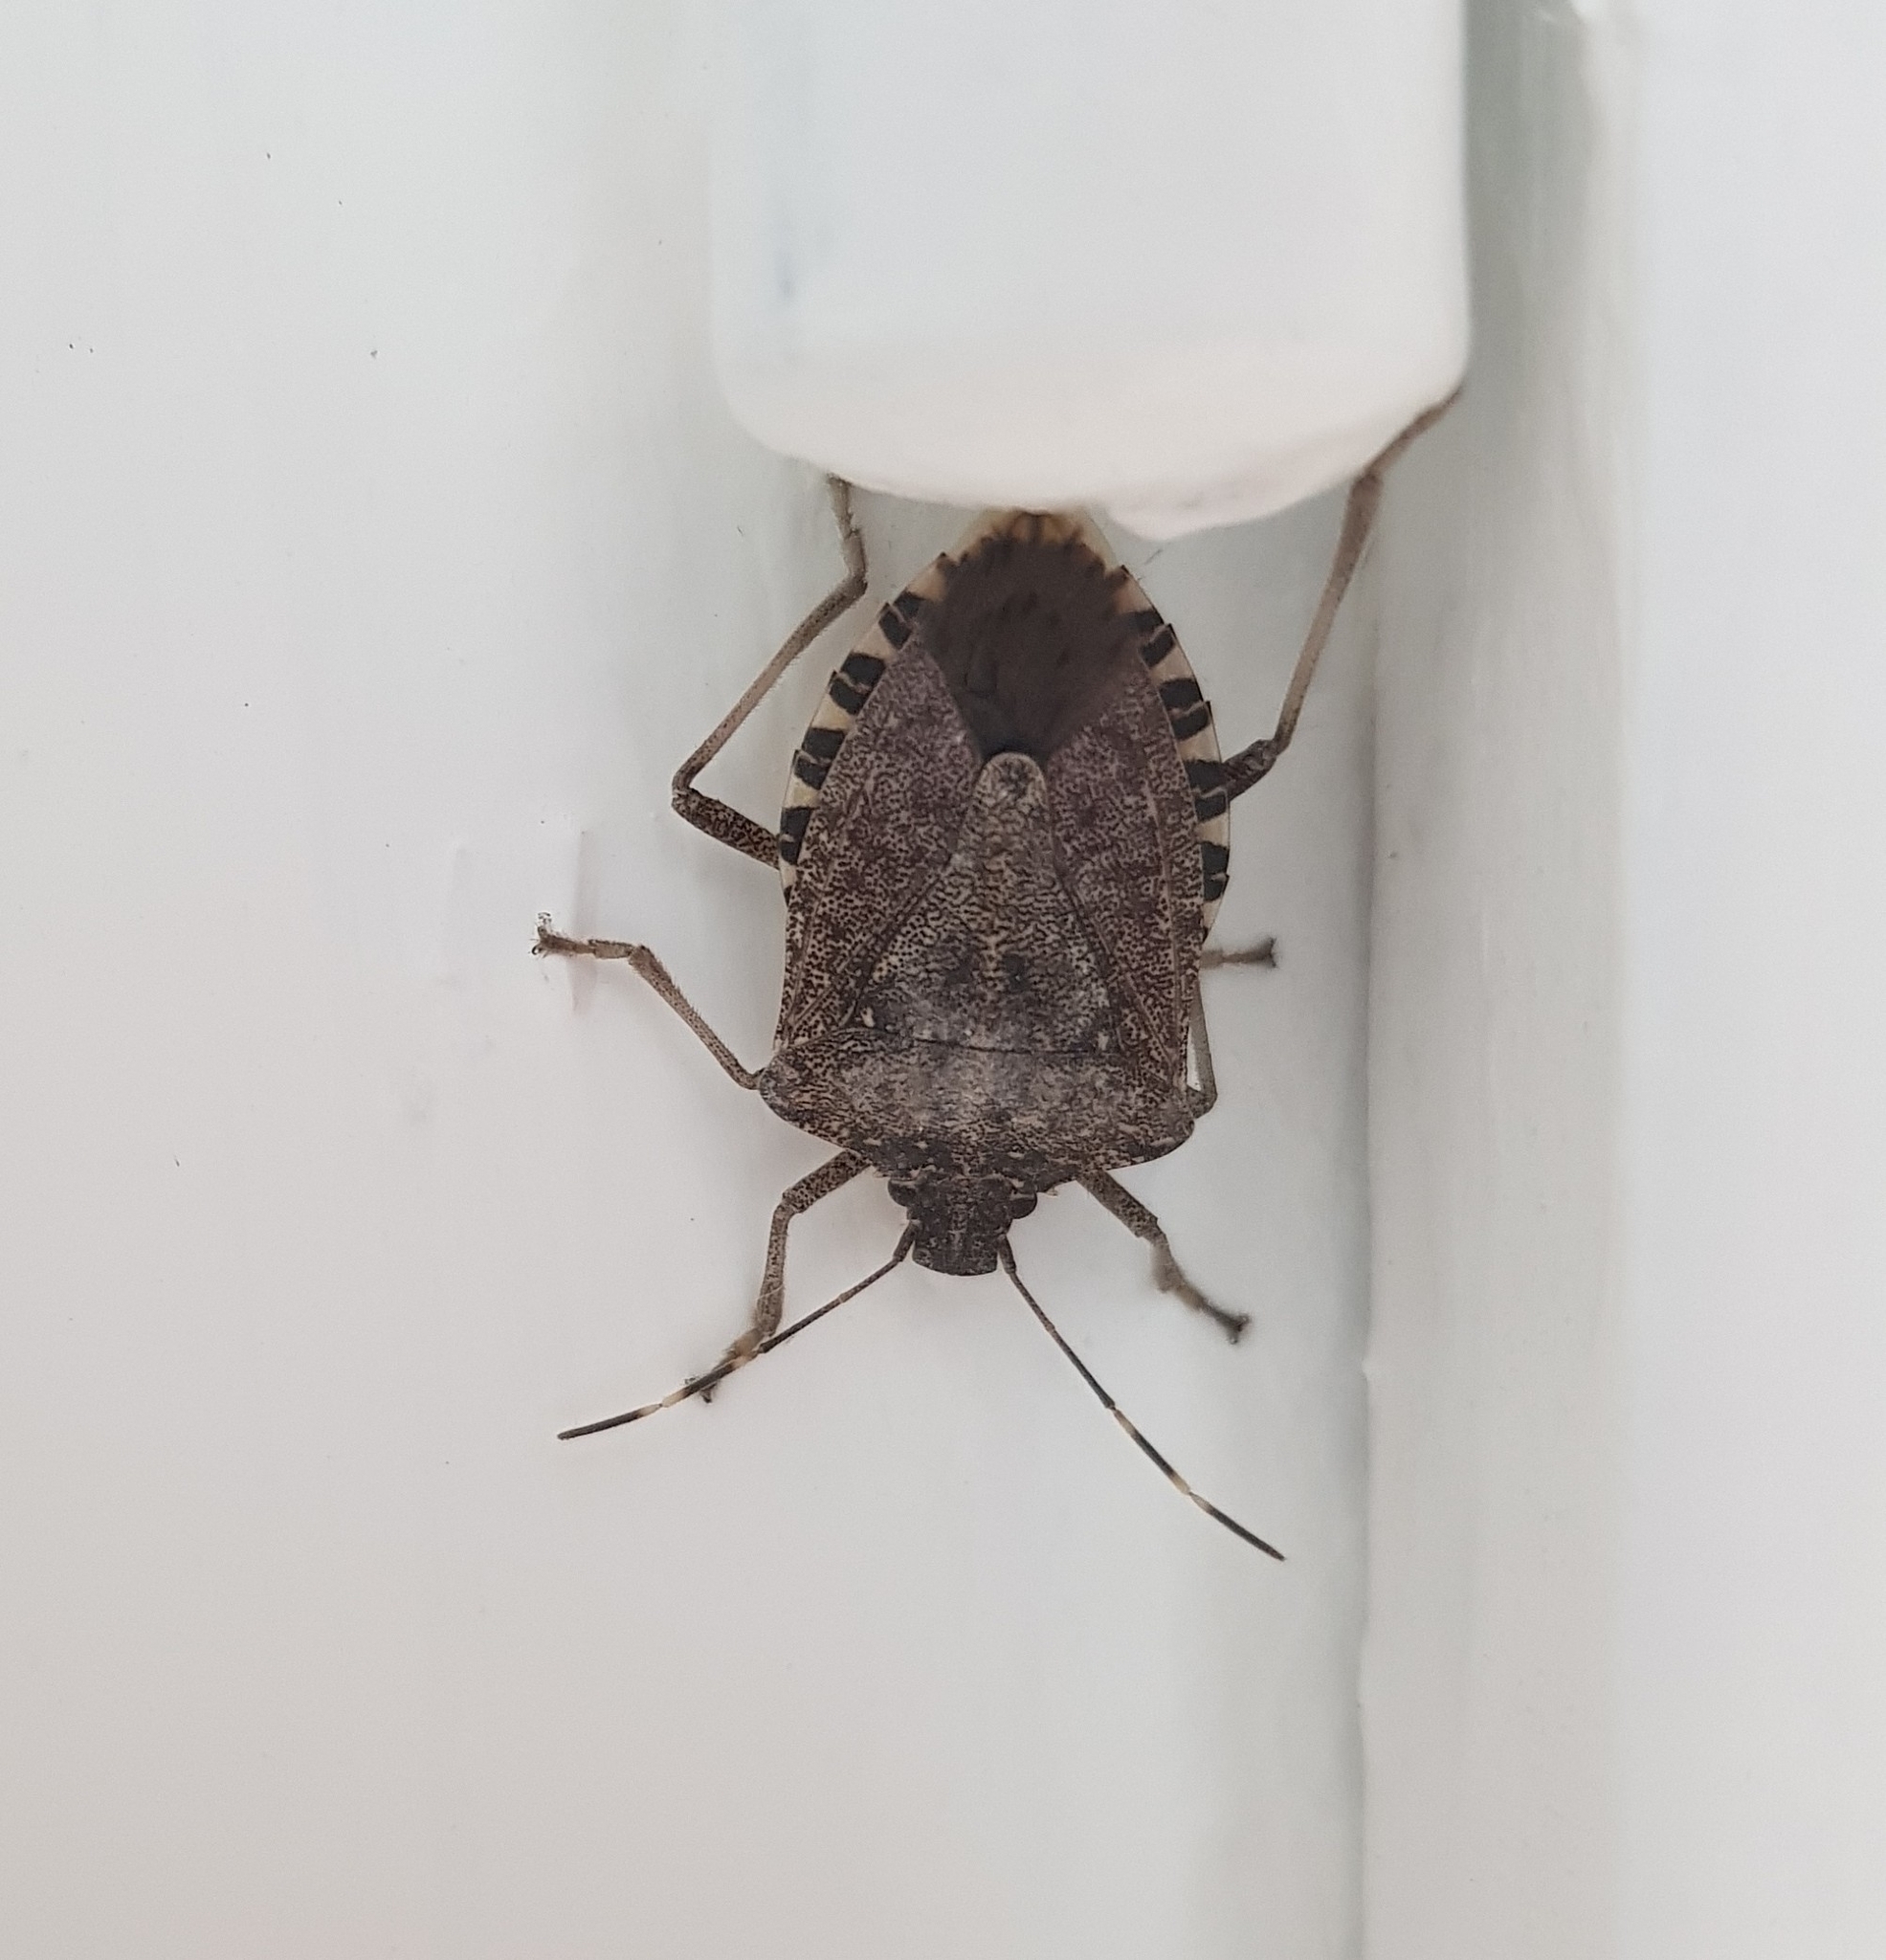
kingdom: Animalia
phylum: Arthropoda
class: Insecta
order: Hemiptera
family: Pentatomidae
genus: Halyomorpha
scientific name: Halyomorpha halys
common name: Brown marmorated stink bug
